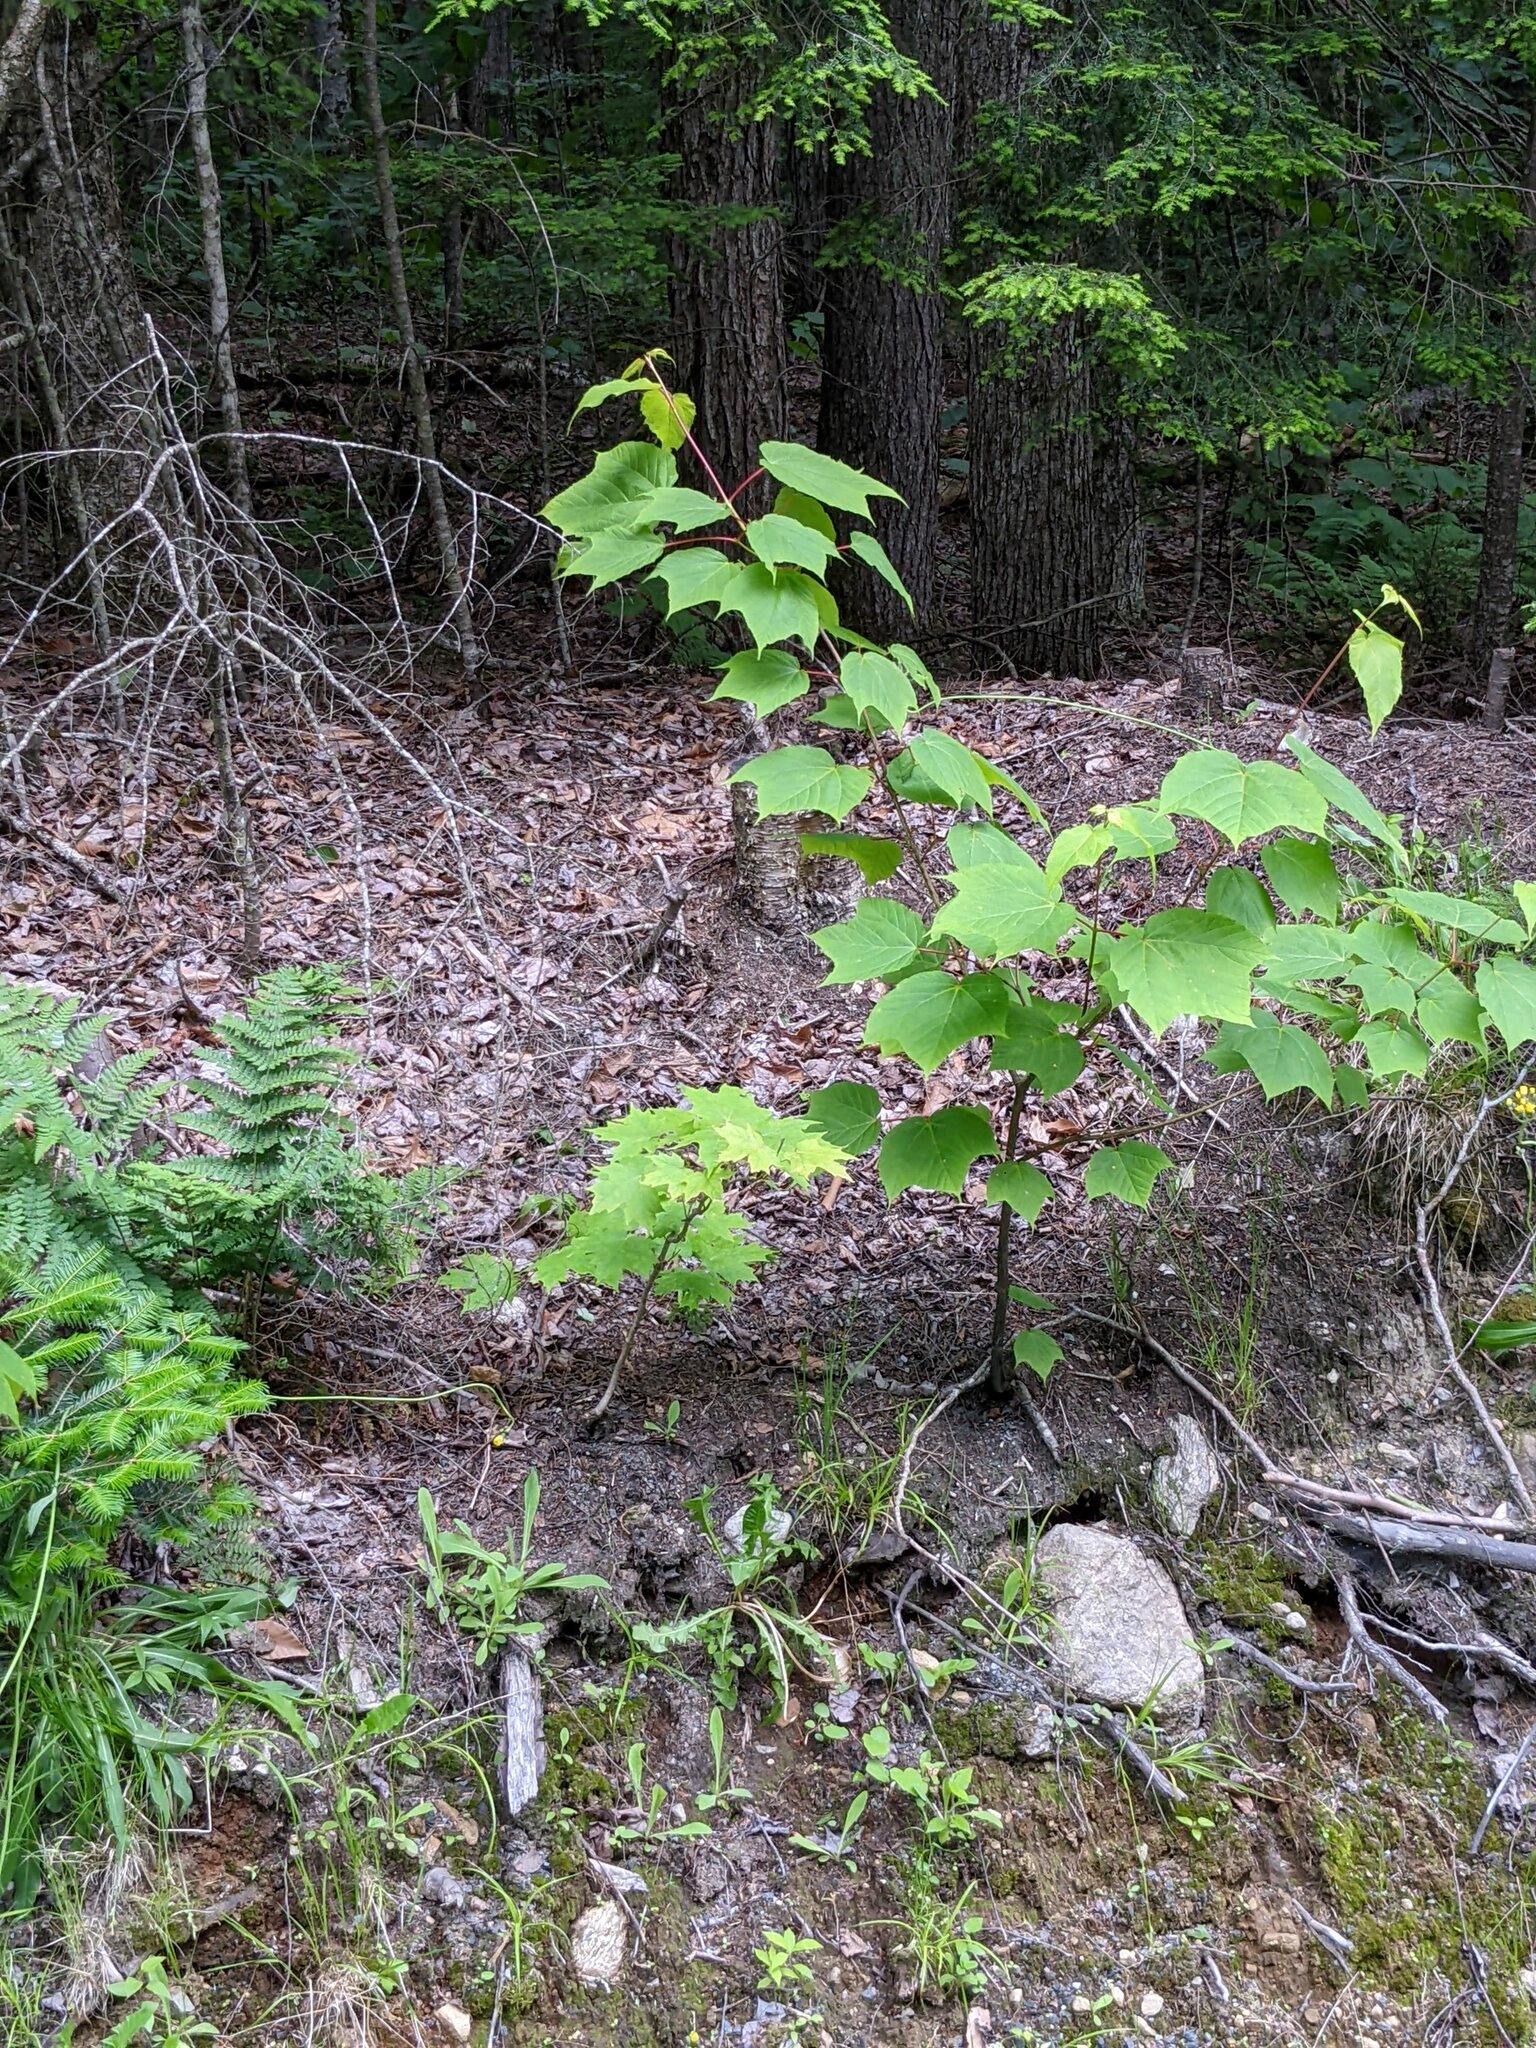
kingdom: Plantae
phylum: Tracheophyta
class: Magnoliopsida
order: Sapindales
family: Sapindaceae
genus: Acer
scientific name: Acer pensylvanicum
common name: Moosewood
